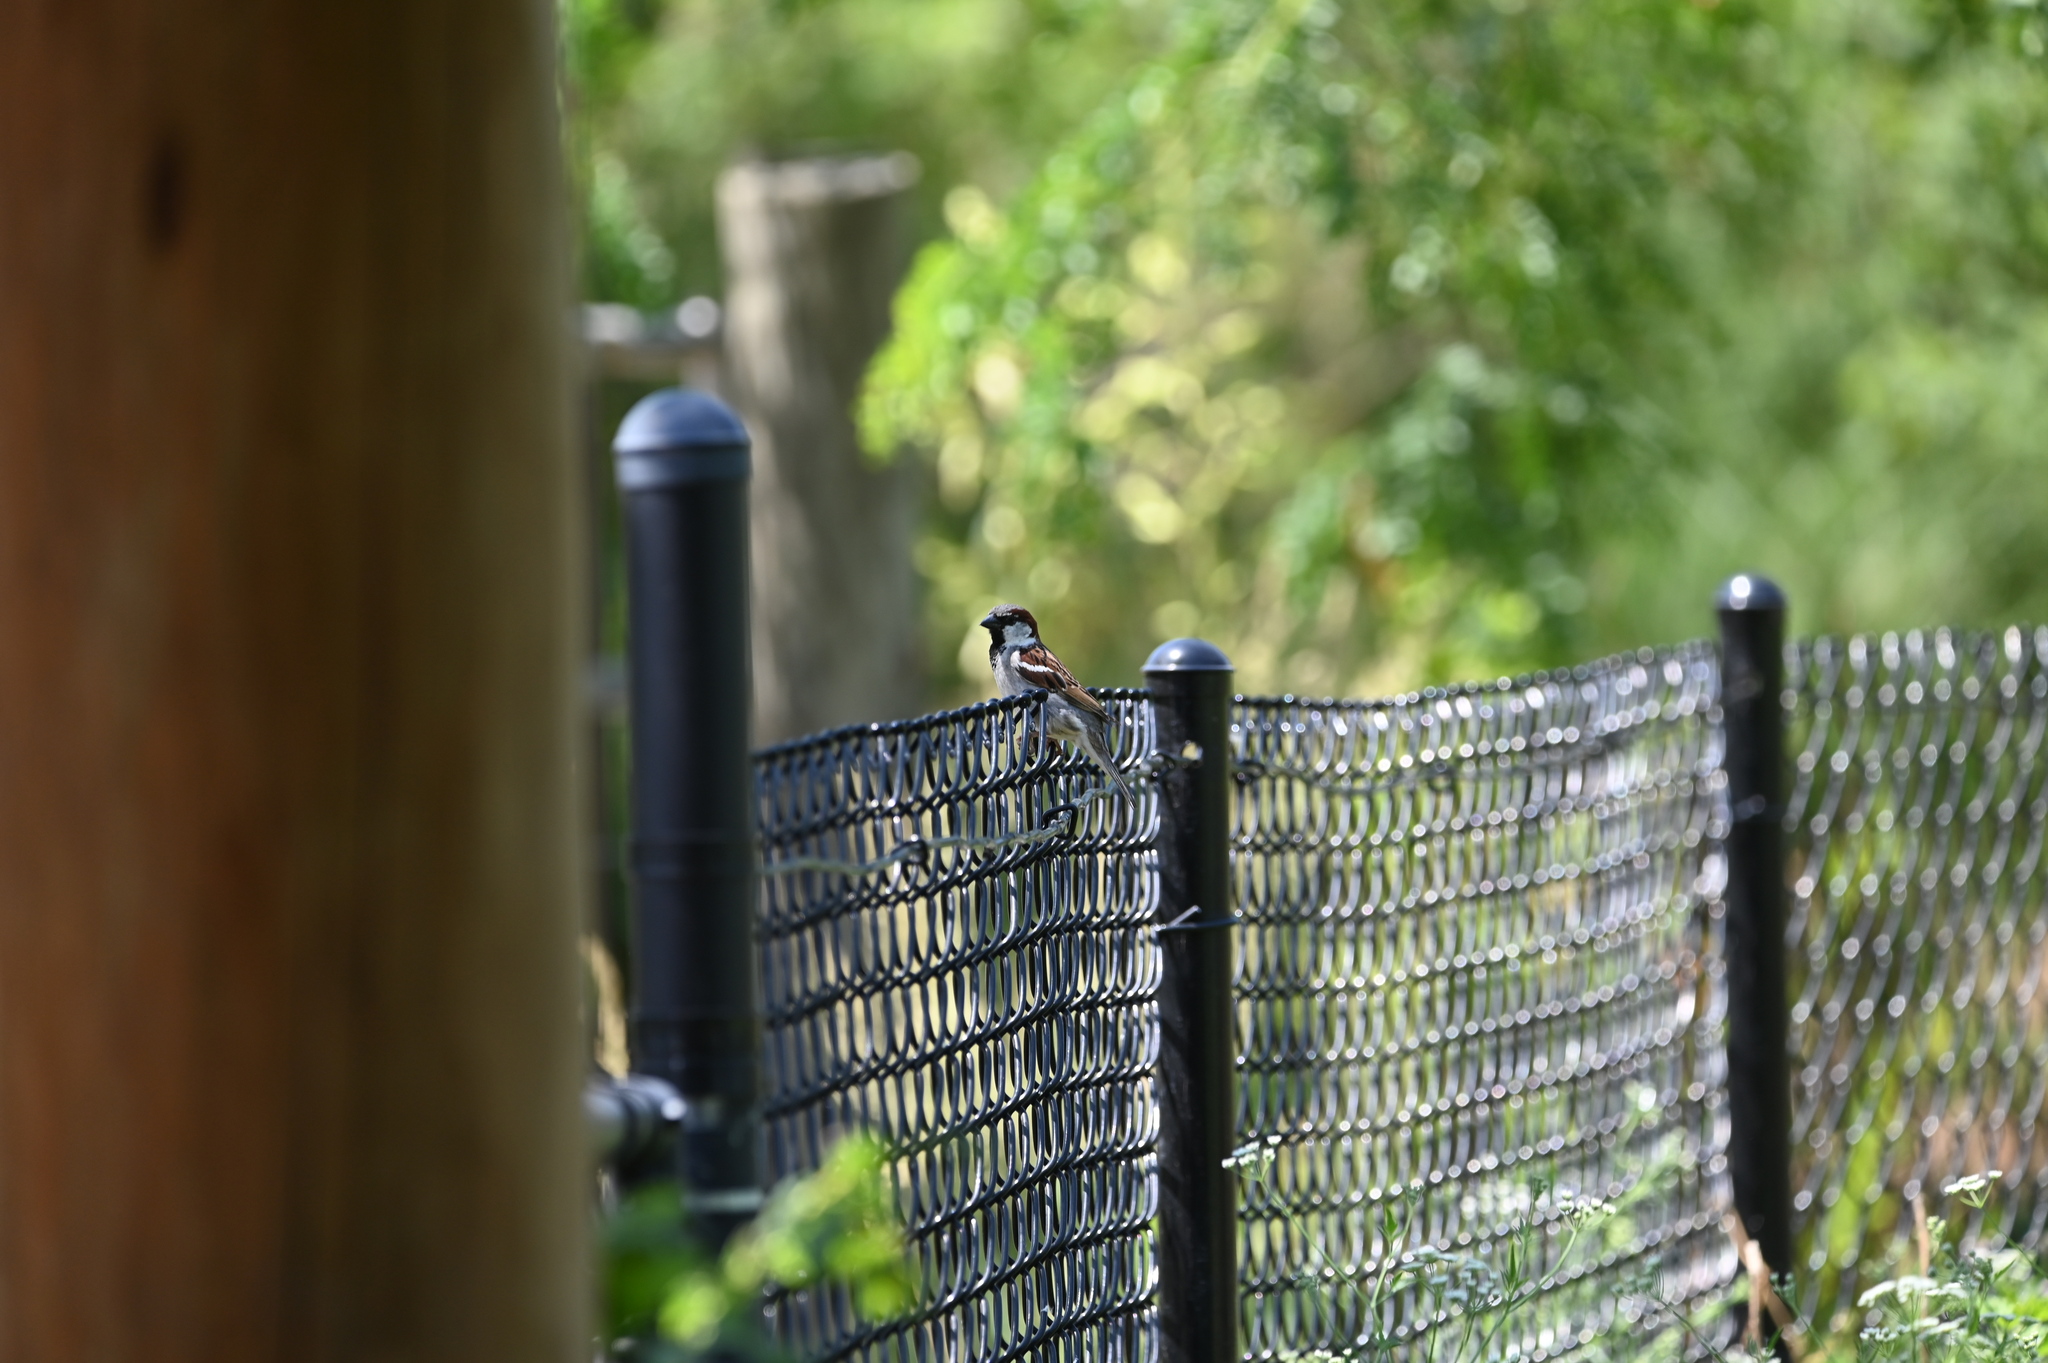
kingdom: Animalia
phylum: Chordata
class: Aves
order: Passeriformes
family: Passeridae
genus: Passer
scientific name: Passer domesticus
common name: House sparrow
